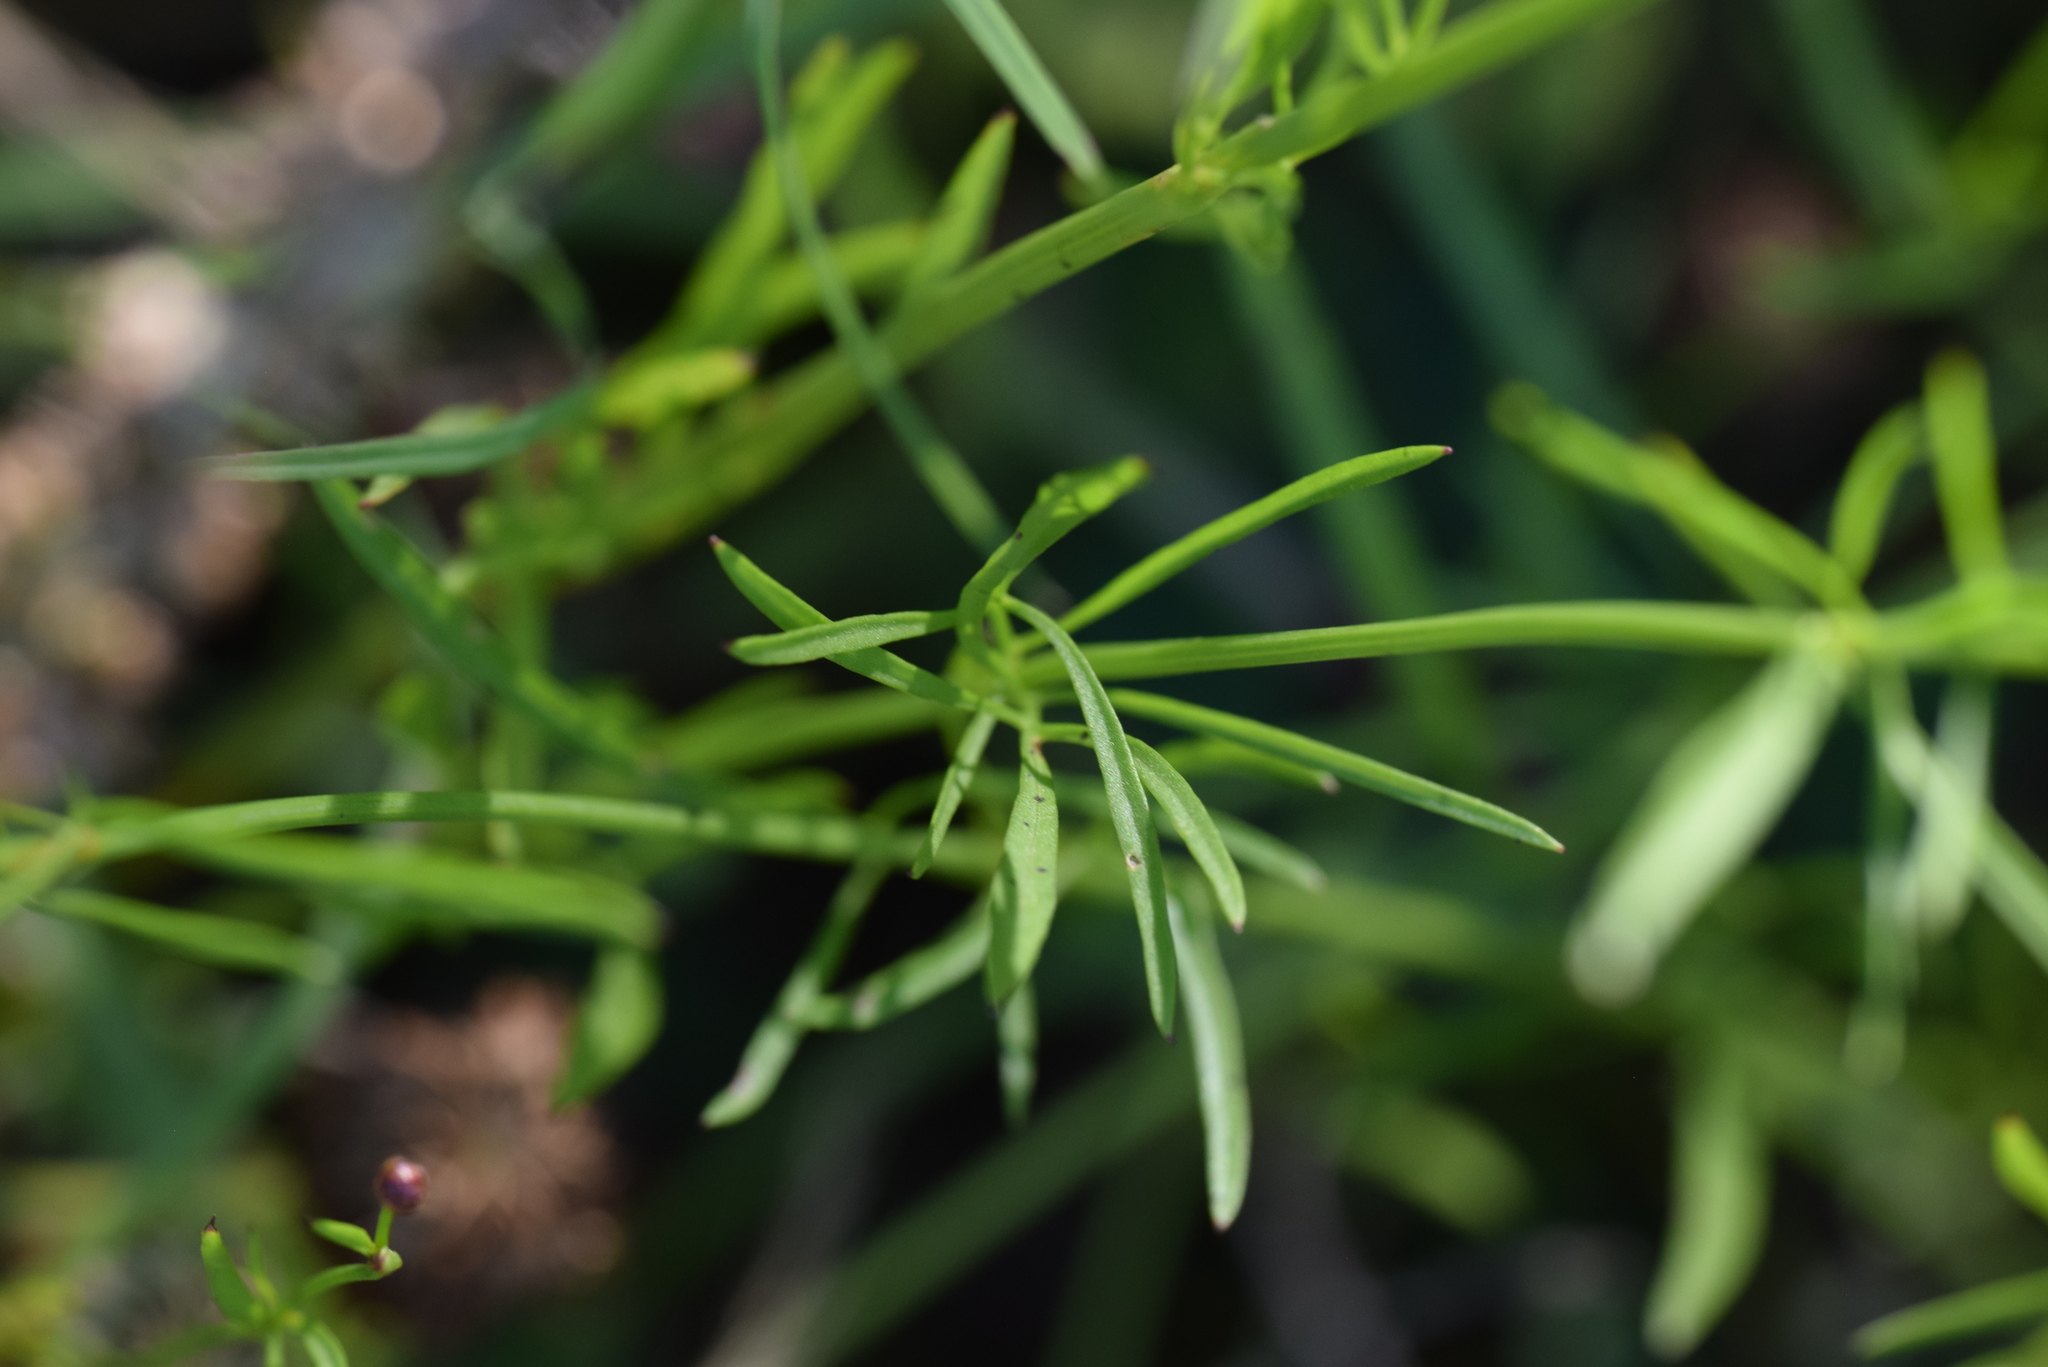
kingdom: Plantae
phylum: Tracheophyta
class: Magnoliopsida
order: Asterales
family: Asteraceae
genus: Coreopsis
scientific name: Coreopsis tinctoria
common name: Garden tickseed
